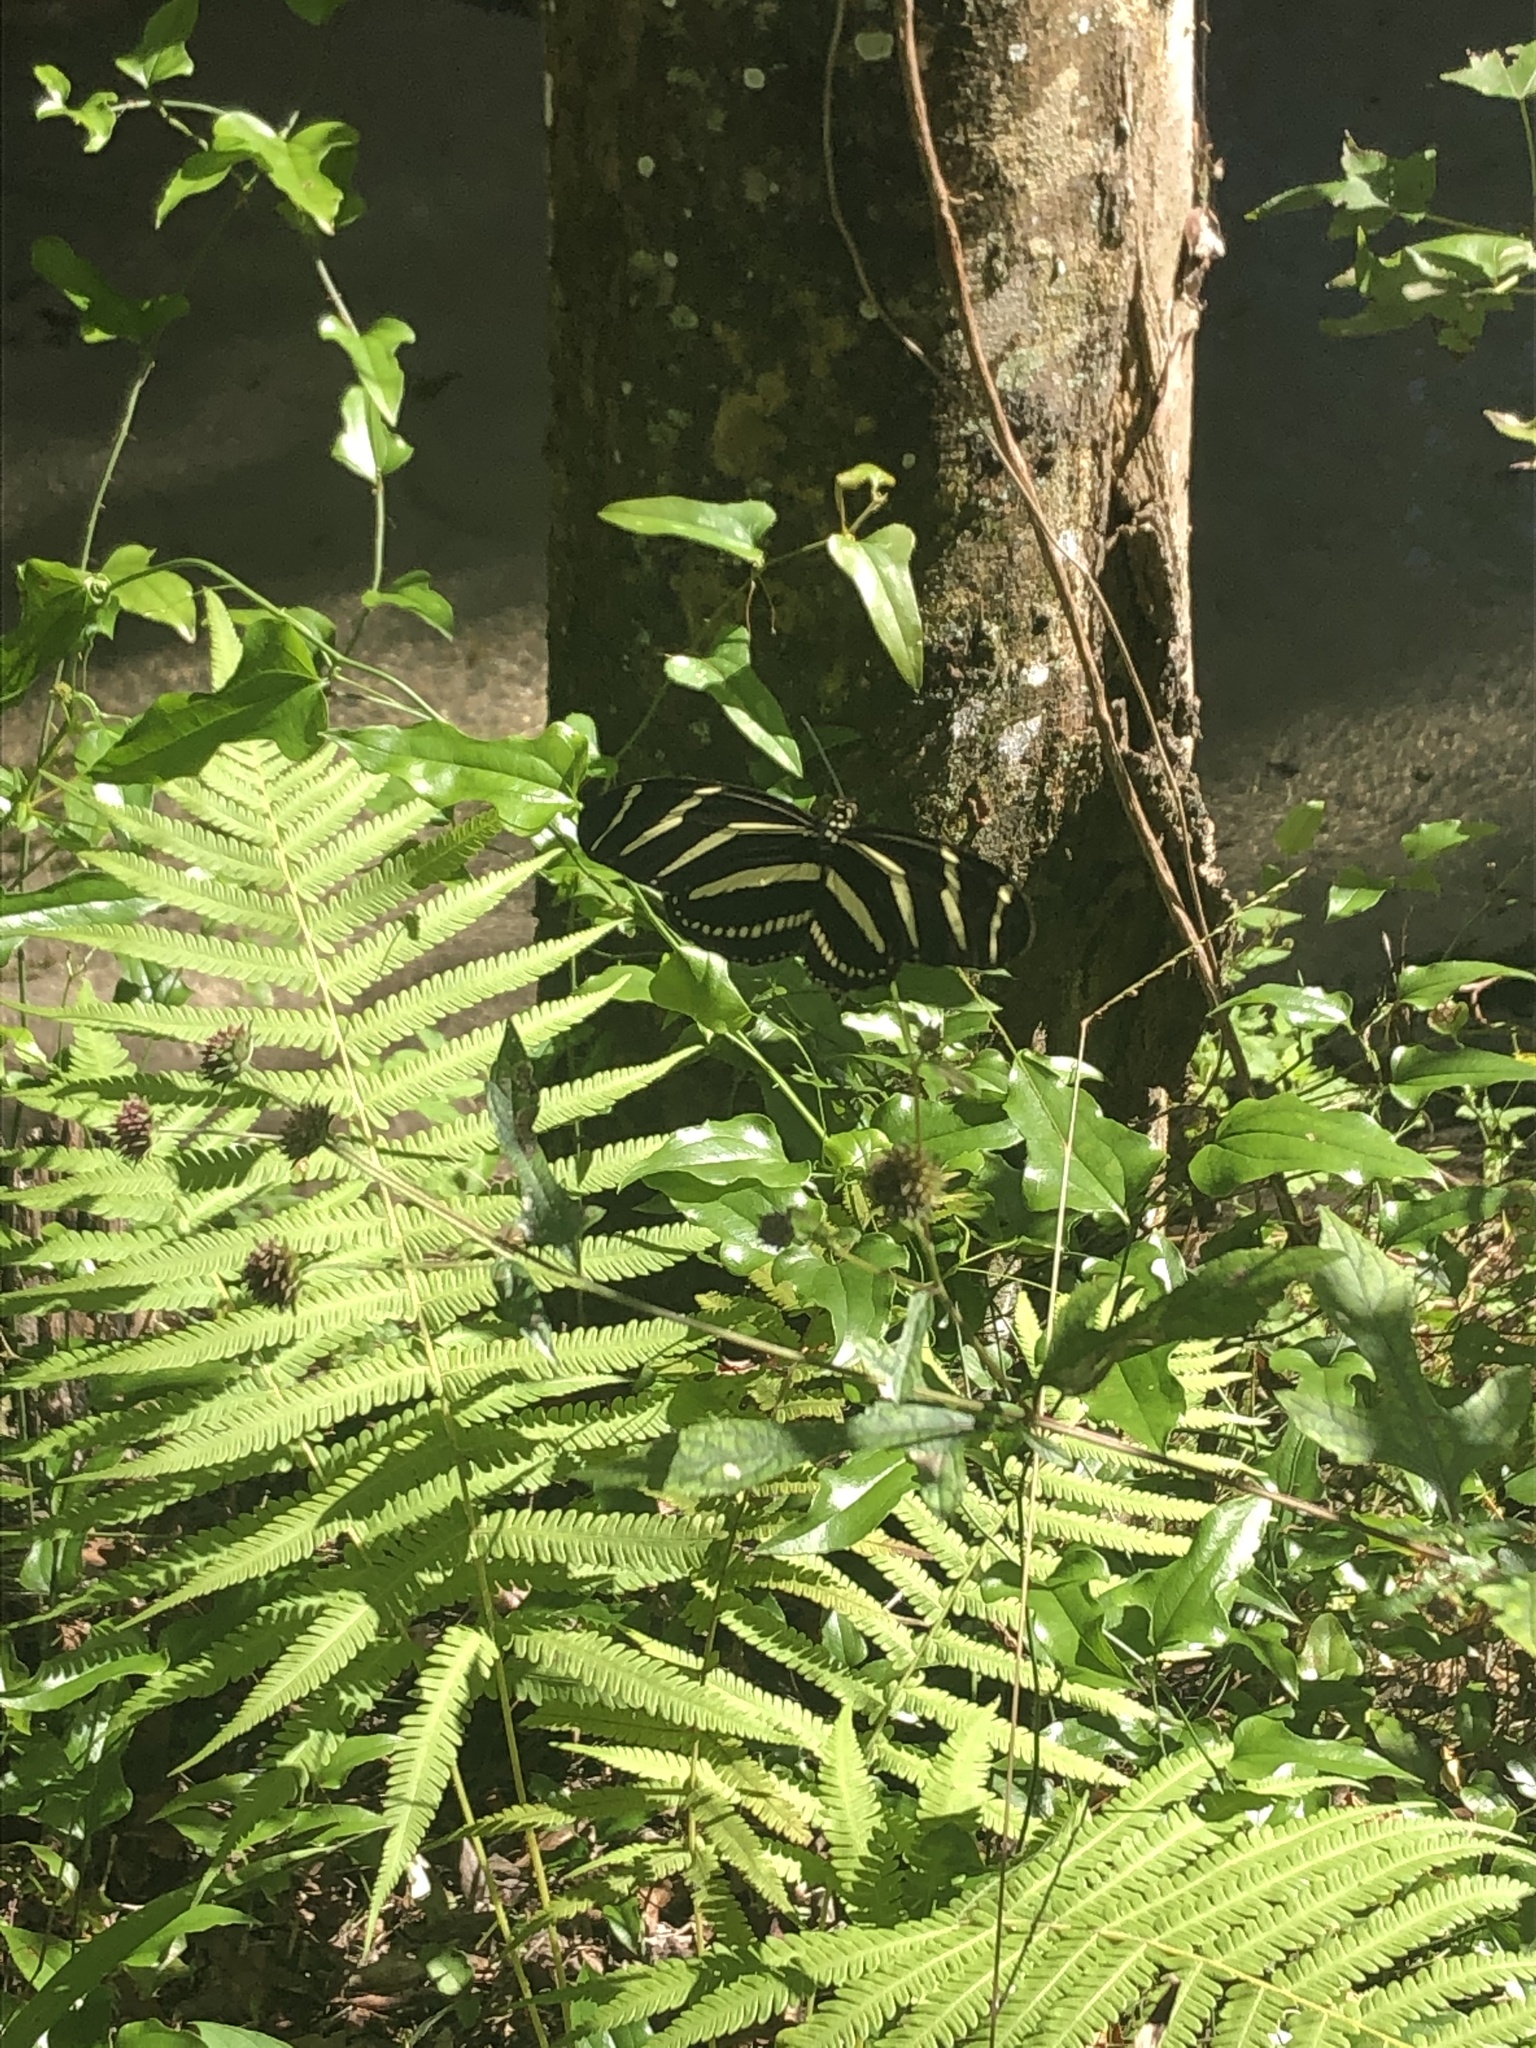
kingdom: Animalia
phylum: Arthropoda
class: Insecta
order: Lepidoptera
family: Nymphalidae
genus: Heliconius
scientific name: Heliconius charithonia
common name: Zebra long wing
